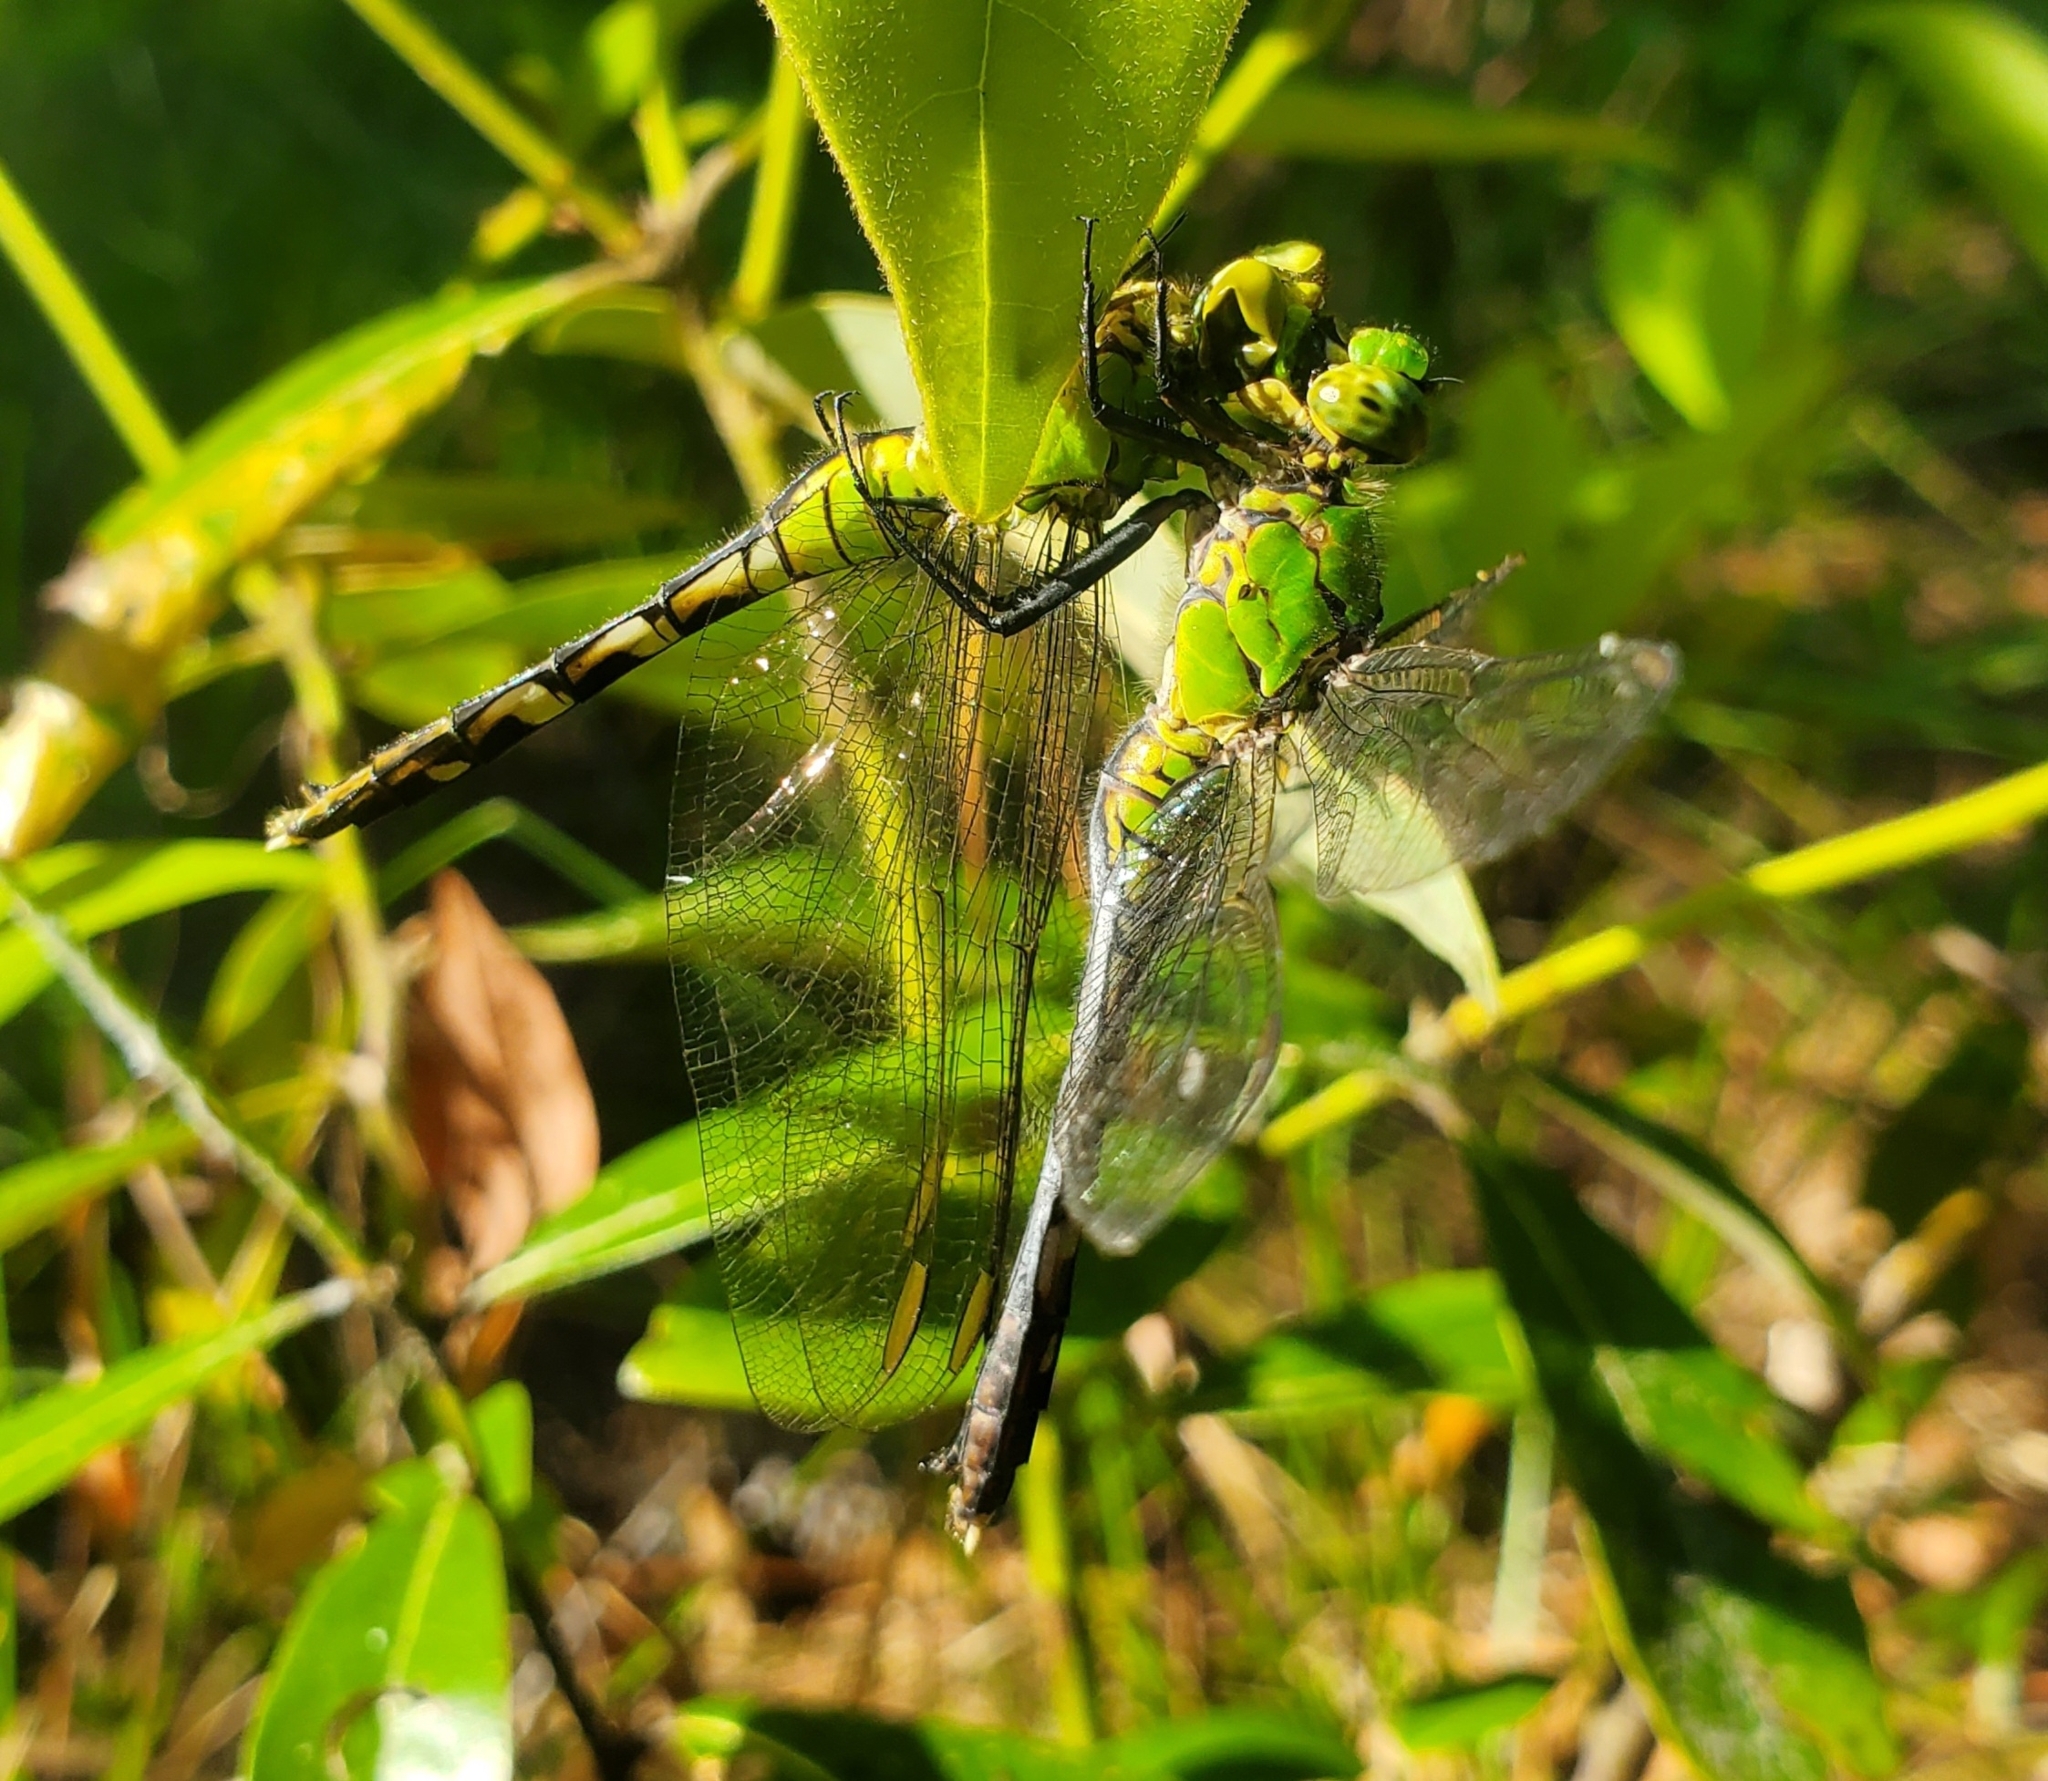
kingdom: Animalia
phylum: Arthropoda
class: Insecta
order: Odonata
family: Libellulidae
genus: Erythemis
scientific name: Erythemis simplicicollis
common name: Eastern pondhawk
